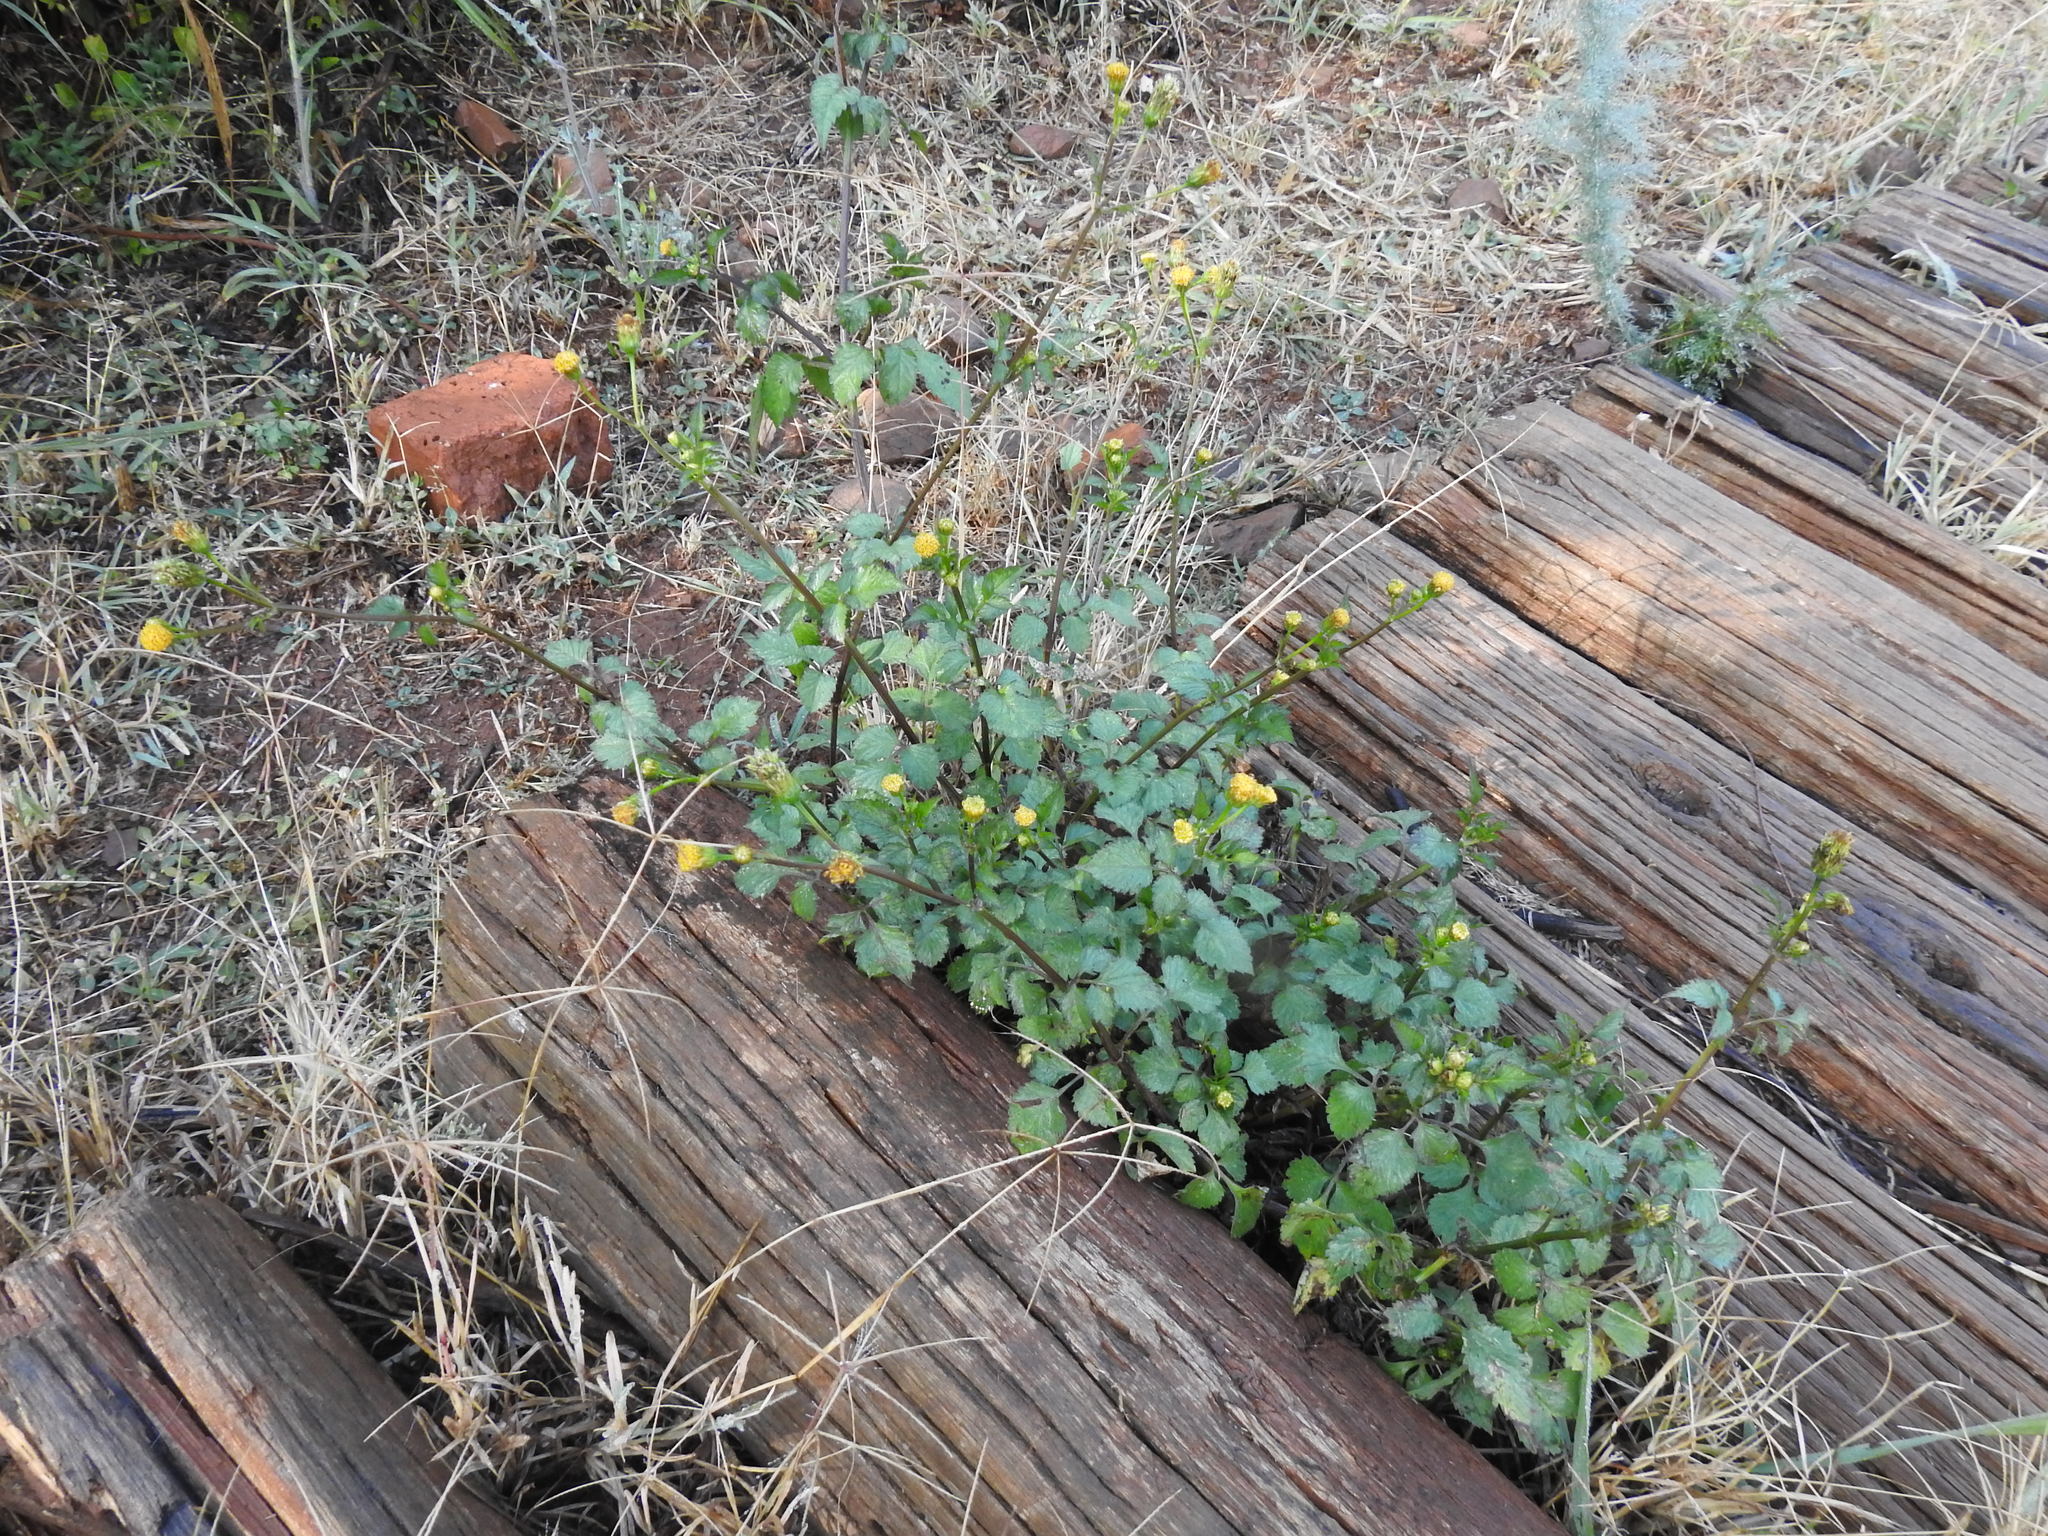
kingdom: Plantae
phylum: Tracheophyta
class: Magnoliopsida
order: Asterales
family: Asteraceae
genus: Bidens
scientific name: Bidens pilosa
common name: Black-jack
